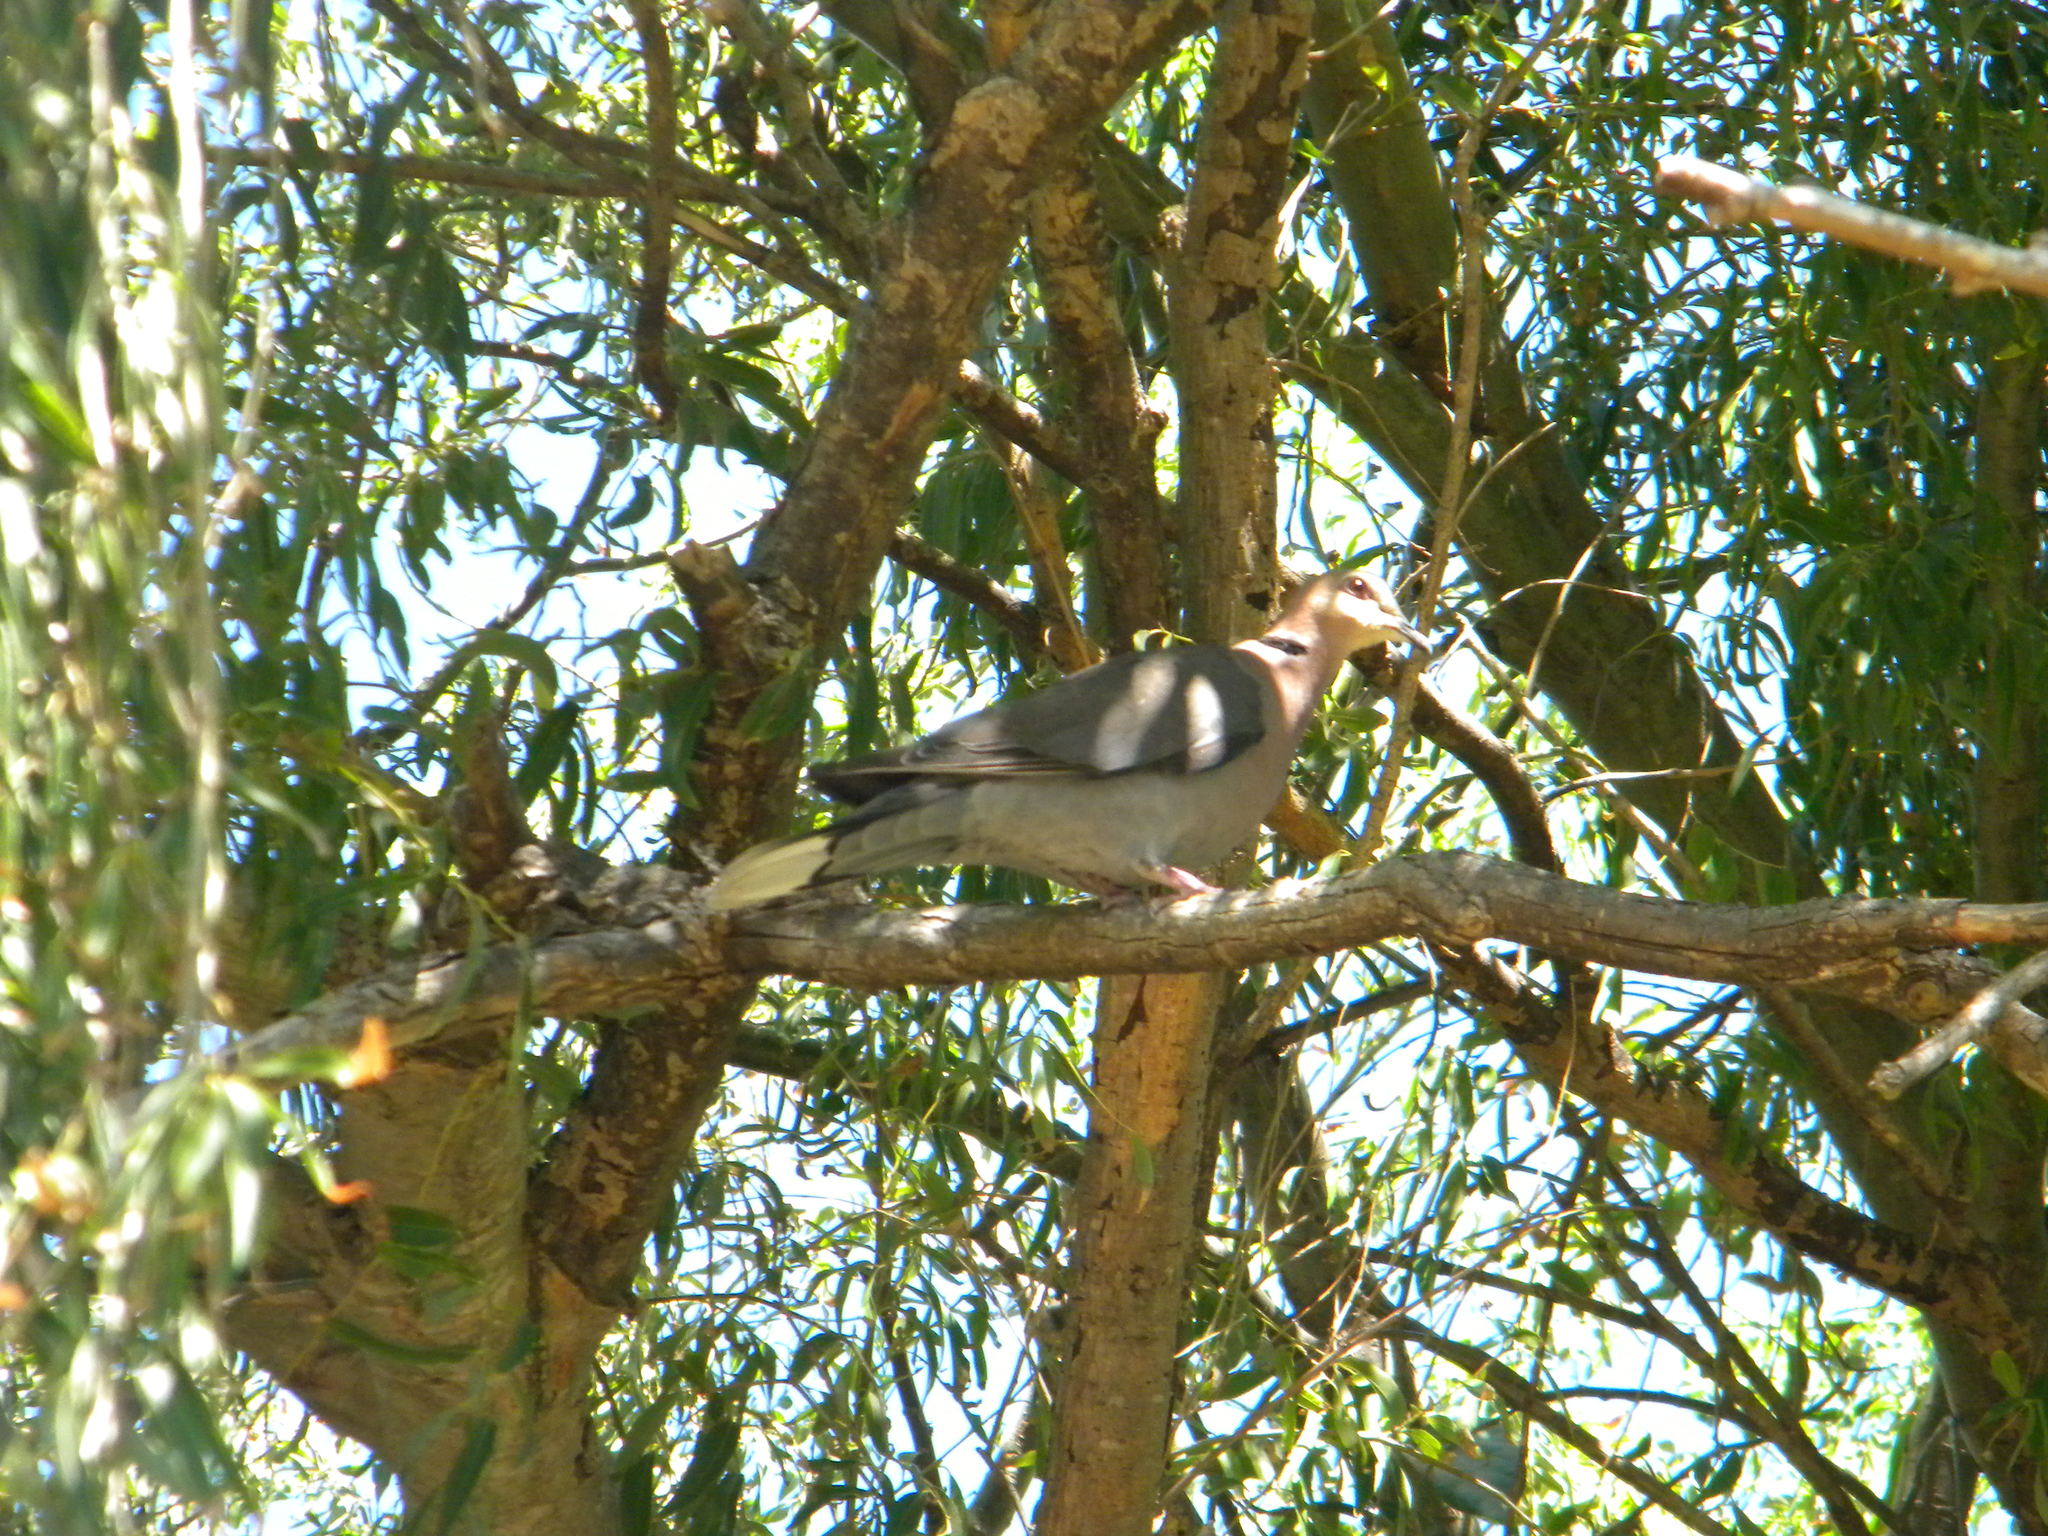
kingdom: Animalia
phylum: Chordata
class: Aves
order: Columbiformes
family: Columbidae
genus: Streptopelia
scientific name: Streptopelia semitorquata
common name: Red-eyed dove
